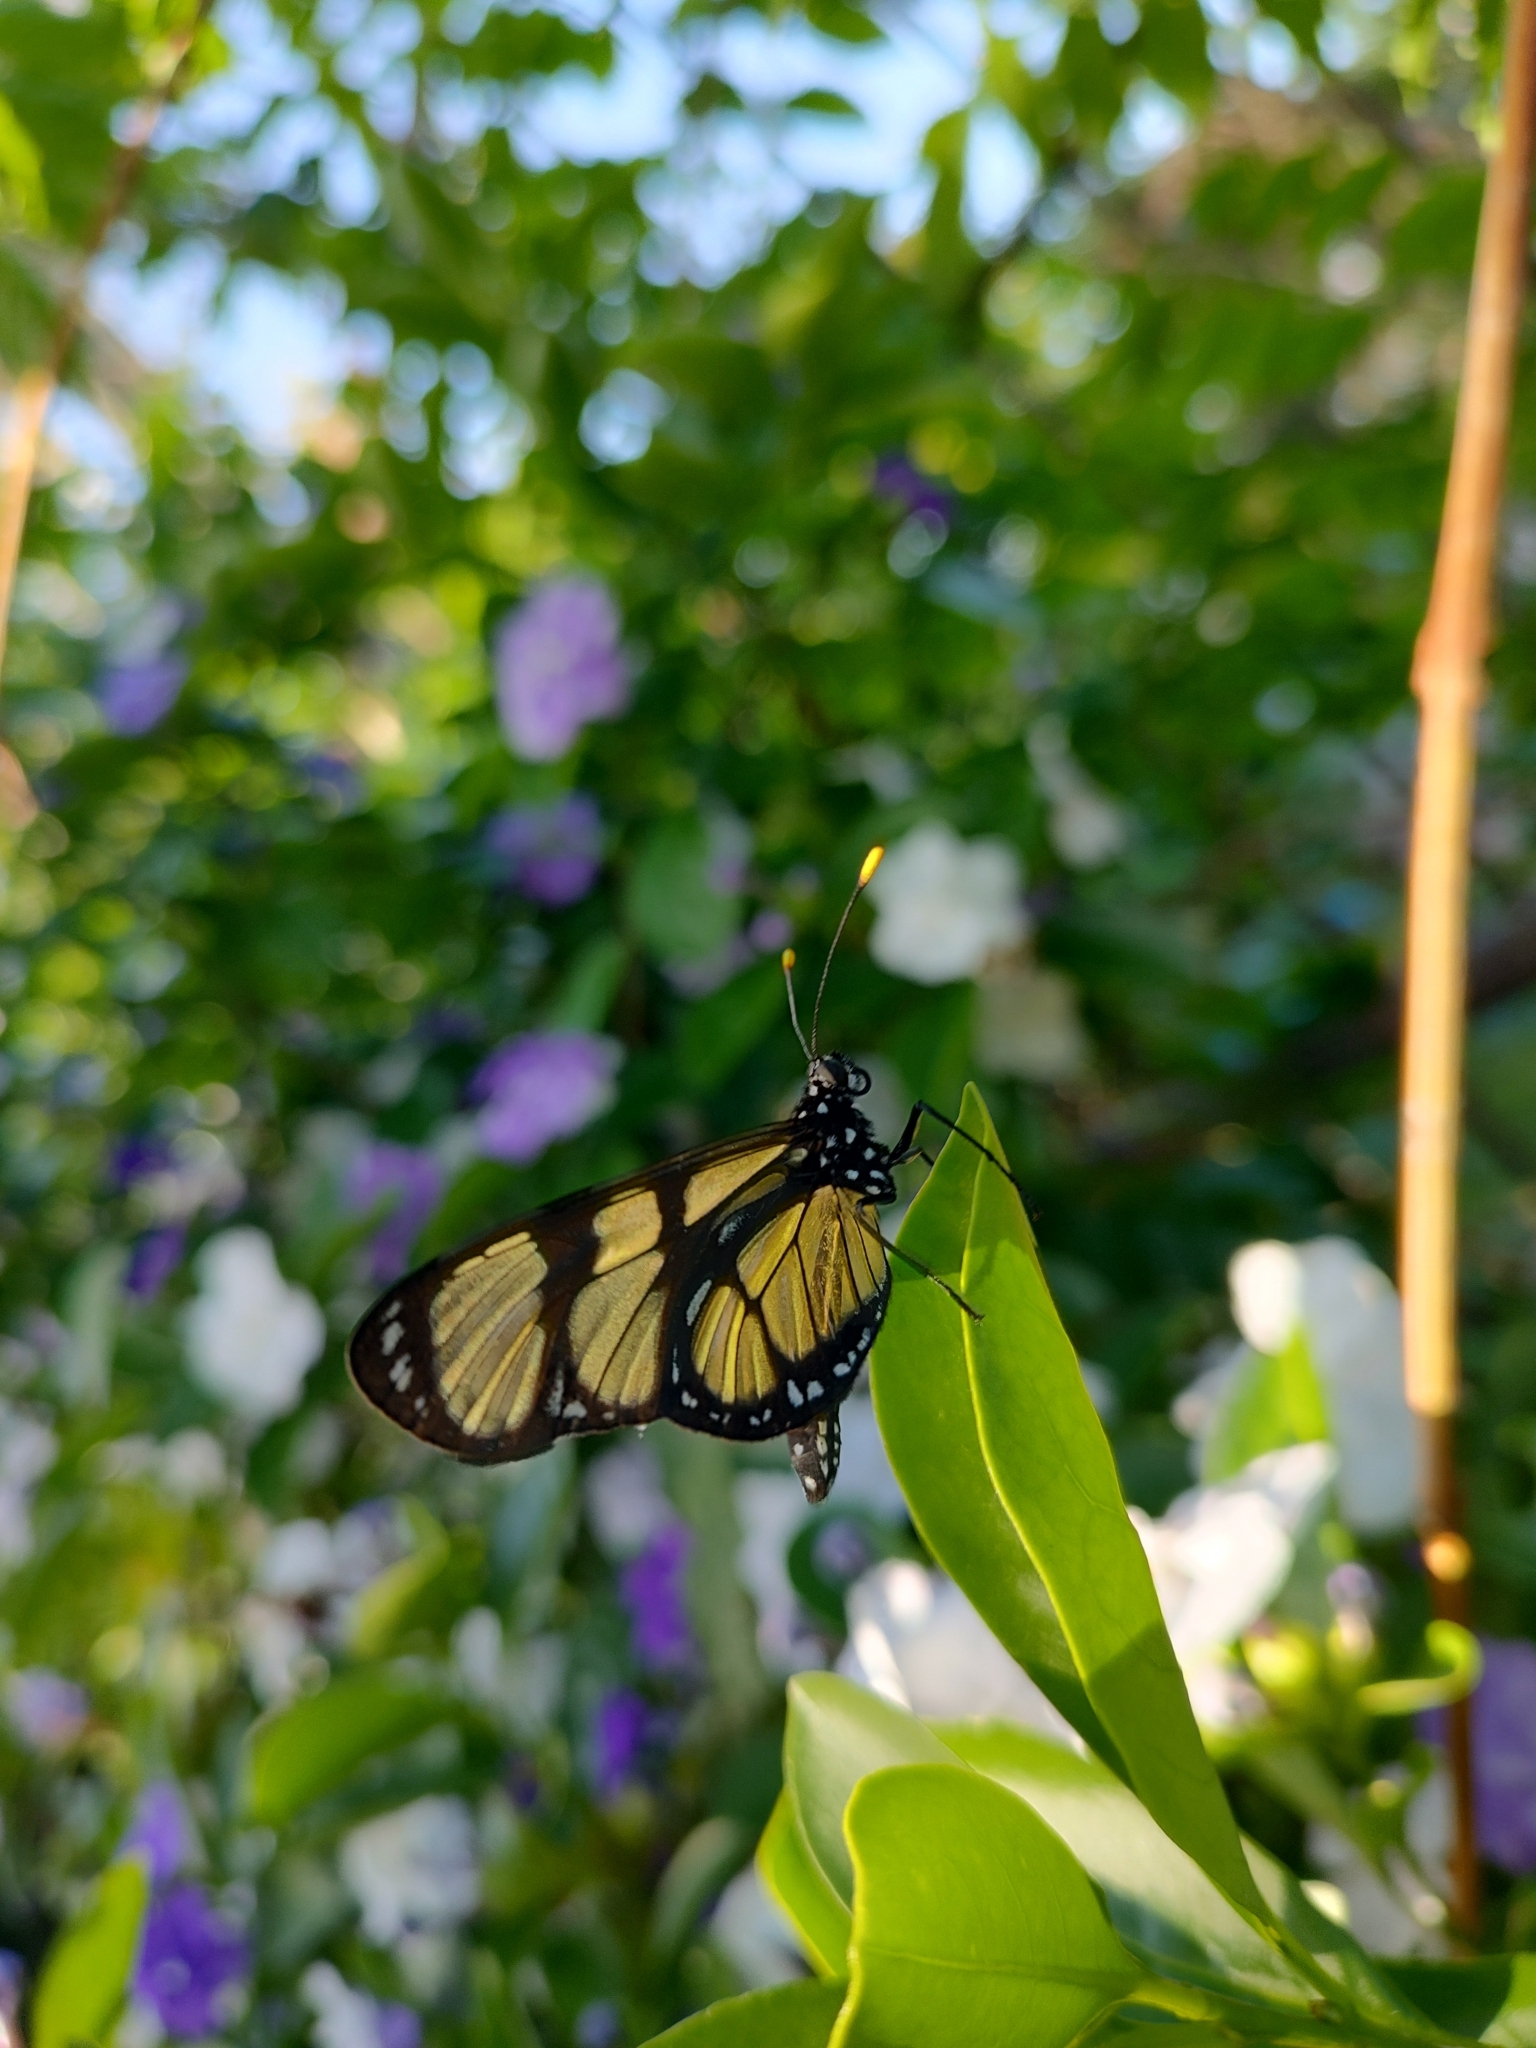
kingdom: Animalia
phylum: Arthropoda
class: Insecta
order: Lepidoptera
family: Nymphalidae
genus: Methona
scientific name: Methona themisto
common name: Themisto amberwing
